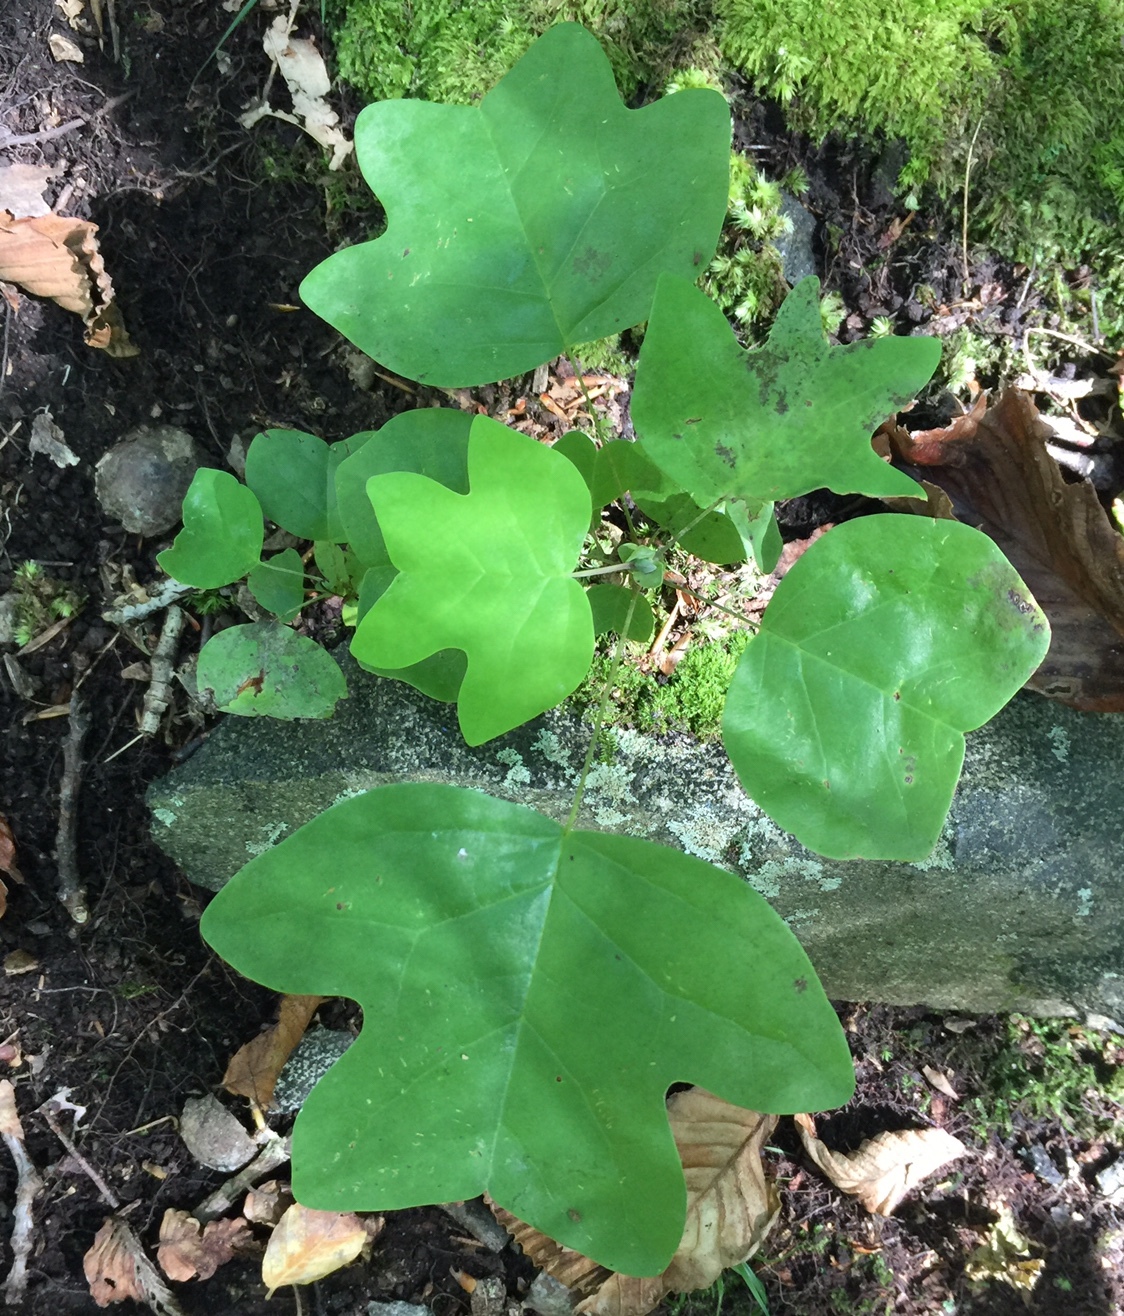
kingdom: Plantae
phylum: Tracheophyta
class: Magnoliopsida
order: Magnoliales
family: Magnoliaceae
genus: Liriodendron
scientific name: Liriodendron tulipifera
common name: Tulip tree
